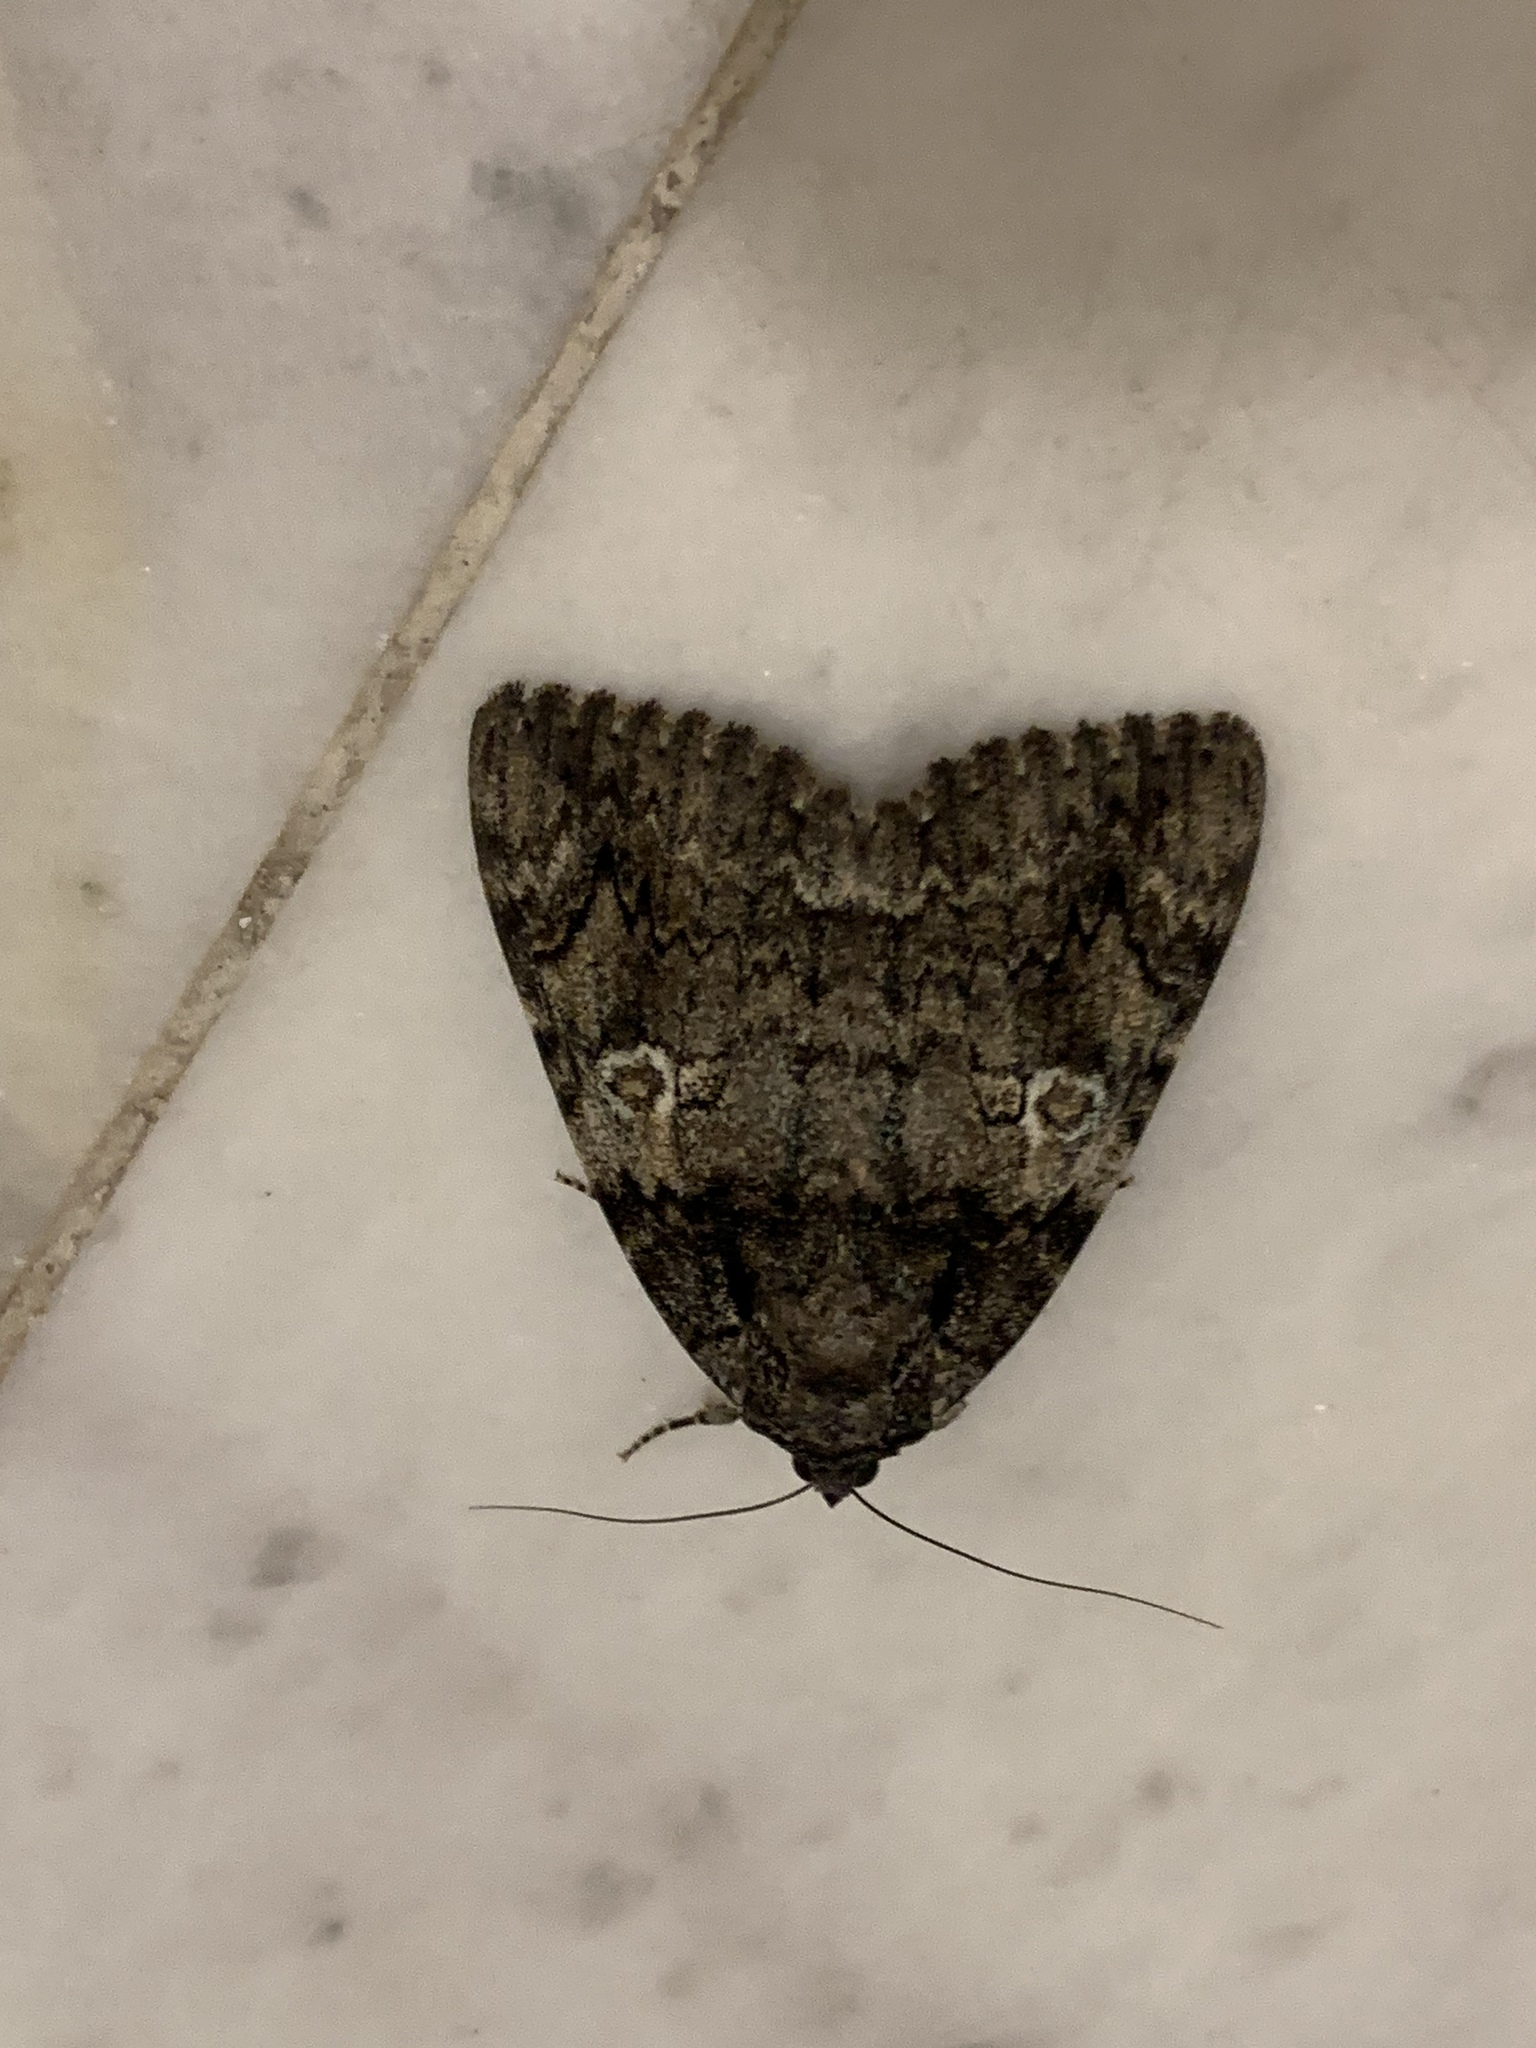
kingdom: Animalia
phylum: Arthropoda
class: Insecta
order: Lepidoptera
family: Erebidae
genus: Catocala
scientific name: Catocala ilia
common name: Ilia underwing
